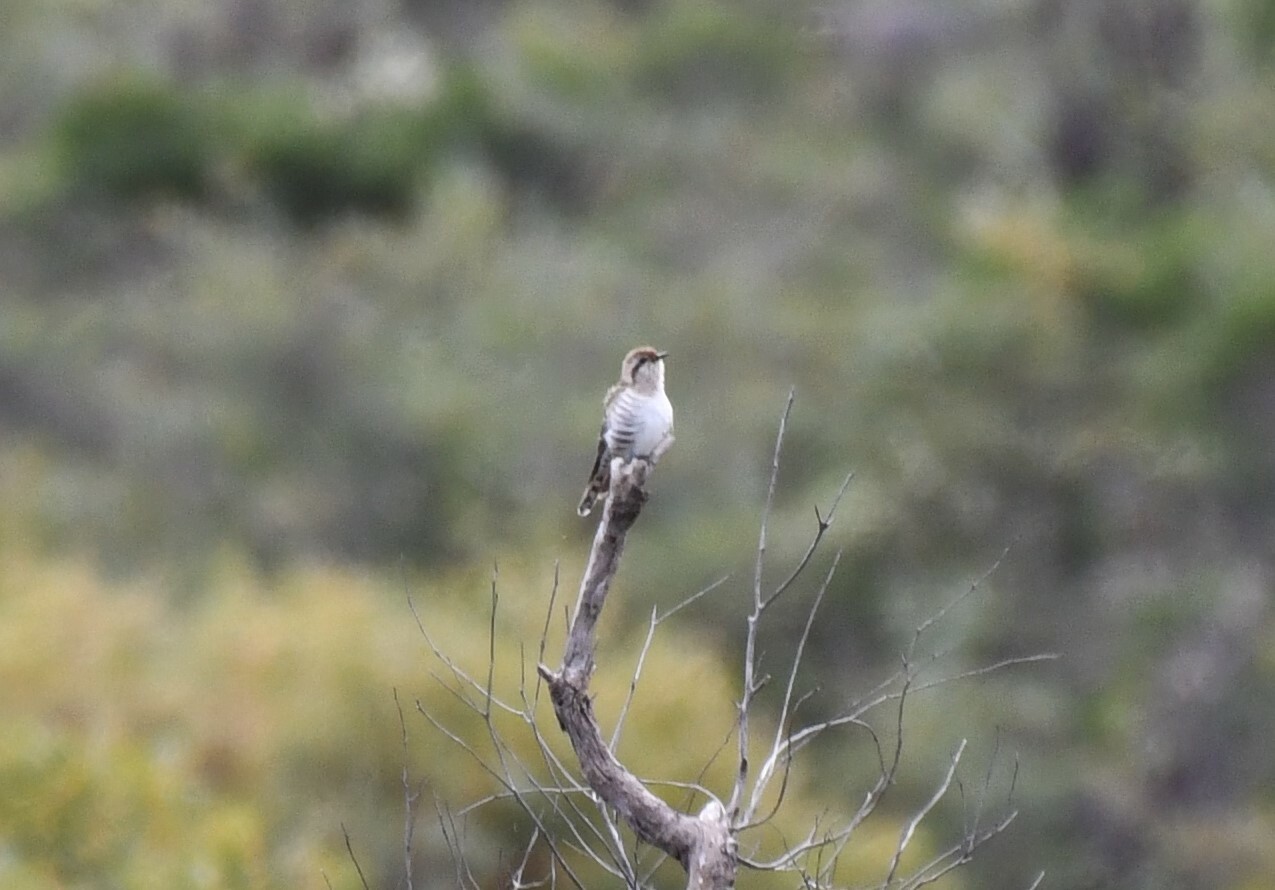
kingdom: Animalia
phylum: Chordata
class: Aves
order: Cuculiformes
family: Cuculidae
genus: Chrysococcyx
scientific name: Chrysococcyx basalis
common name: Horsfield's bronze cuckoo
